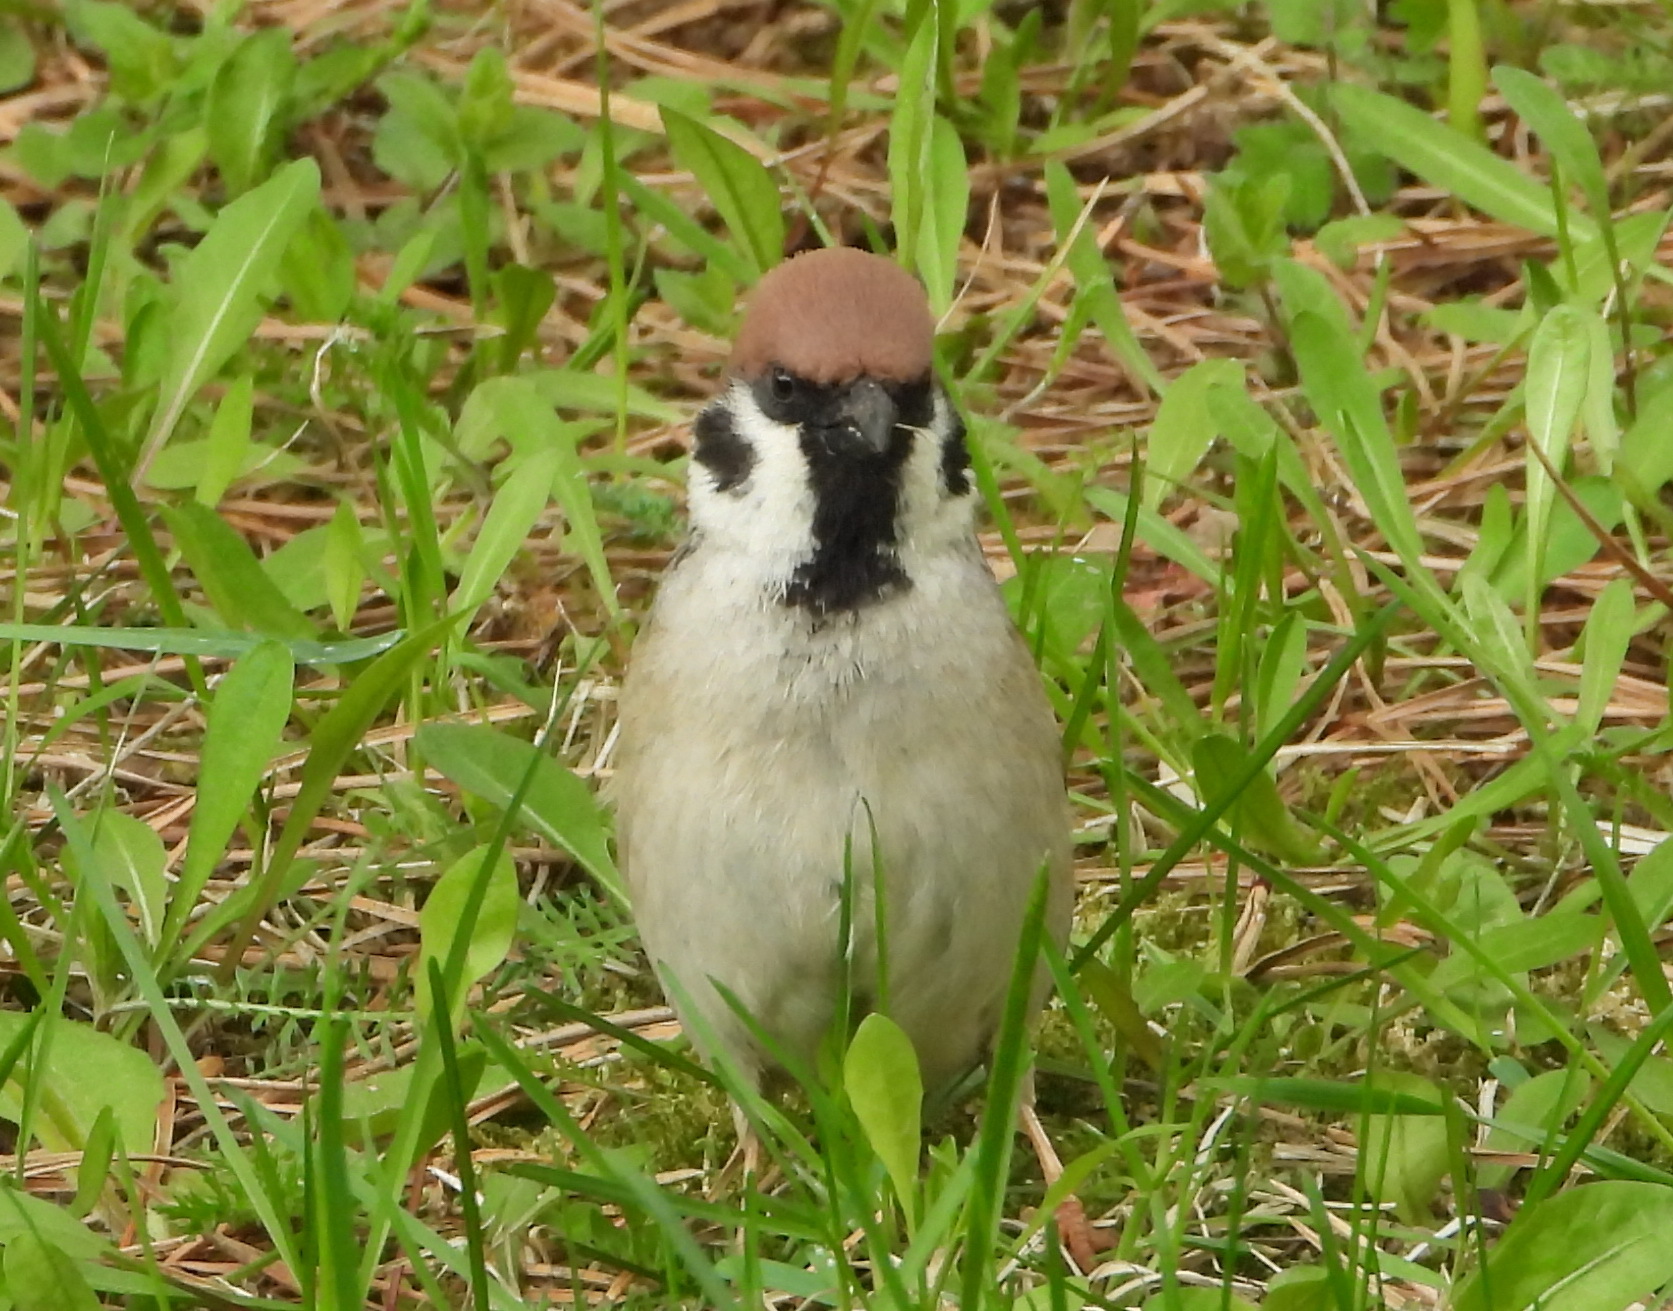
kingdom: Animalia
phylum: Chordata
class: Aves
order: Passeriformes
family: Passeridae
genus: Passer
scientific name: Passer montanus
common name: Eurasian tree sparrow
